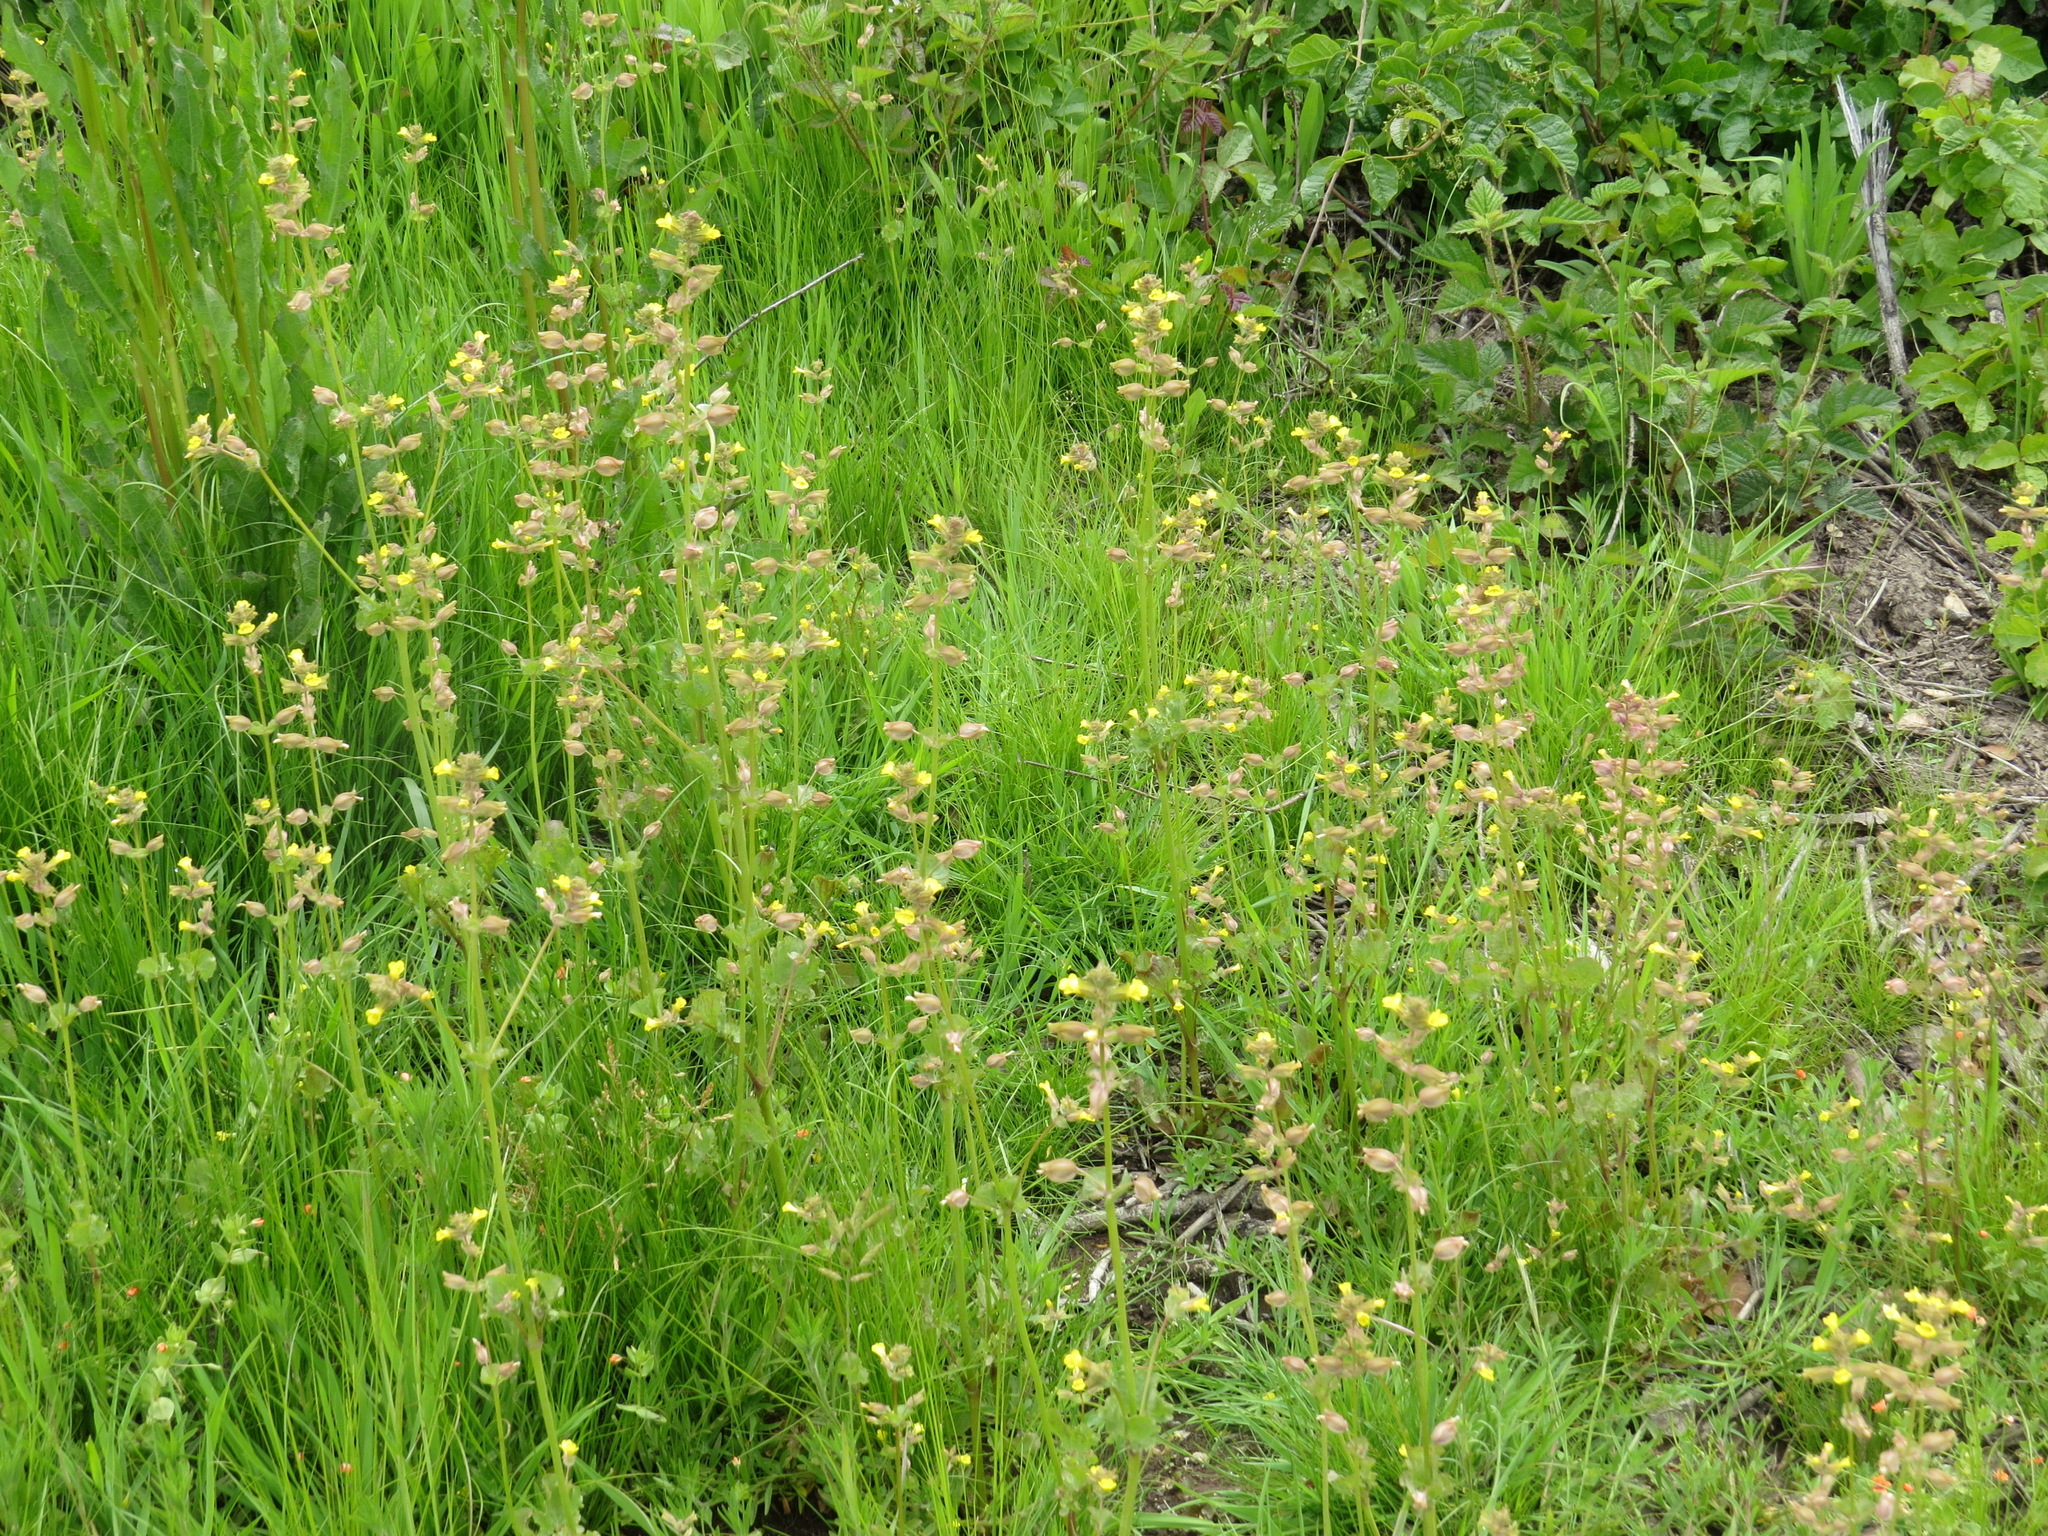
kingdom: Plantae
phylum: Tracheophyta
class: Magnoliopsida
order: Lamiales
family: Phrymaceae
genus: Erythranthe
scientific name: Erythranthe arvensis
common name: Field monkeyflower
